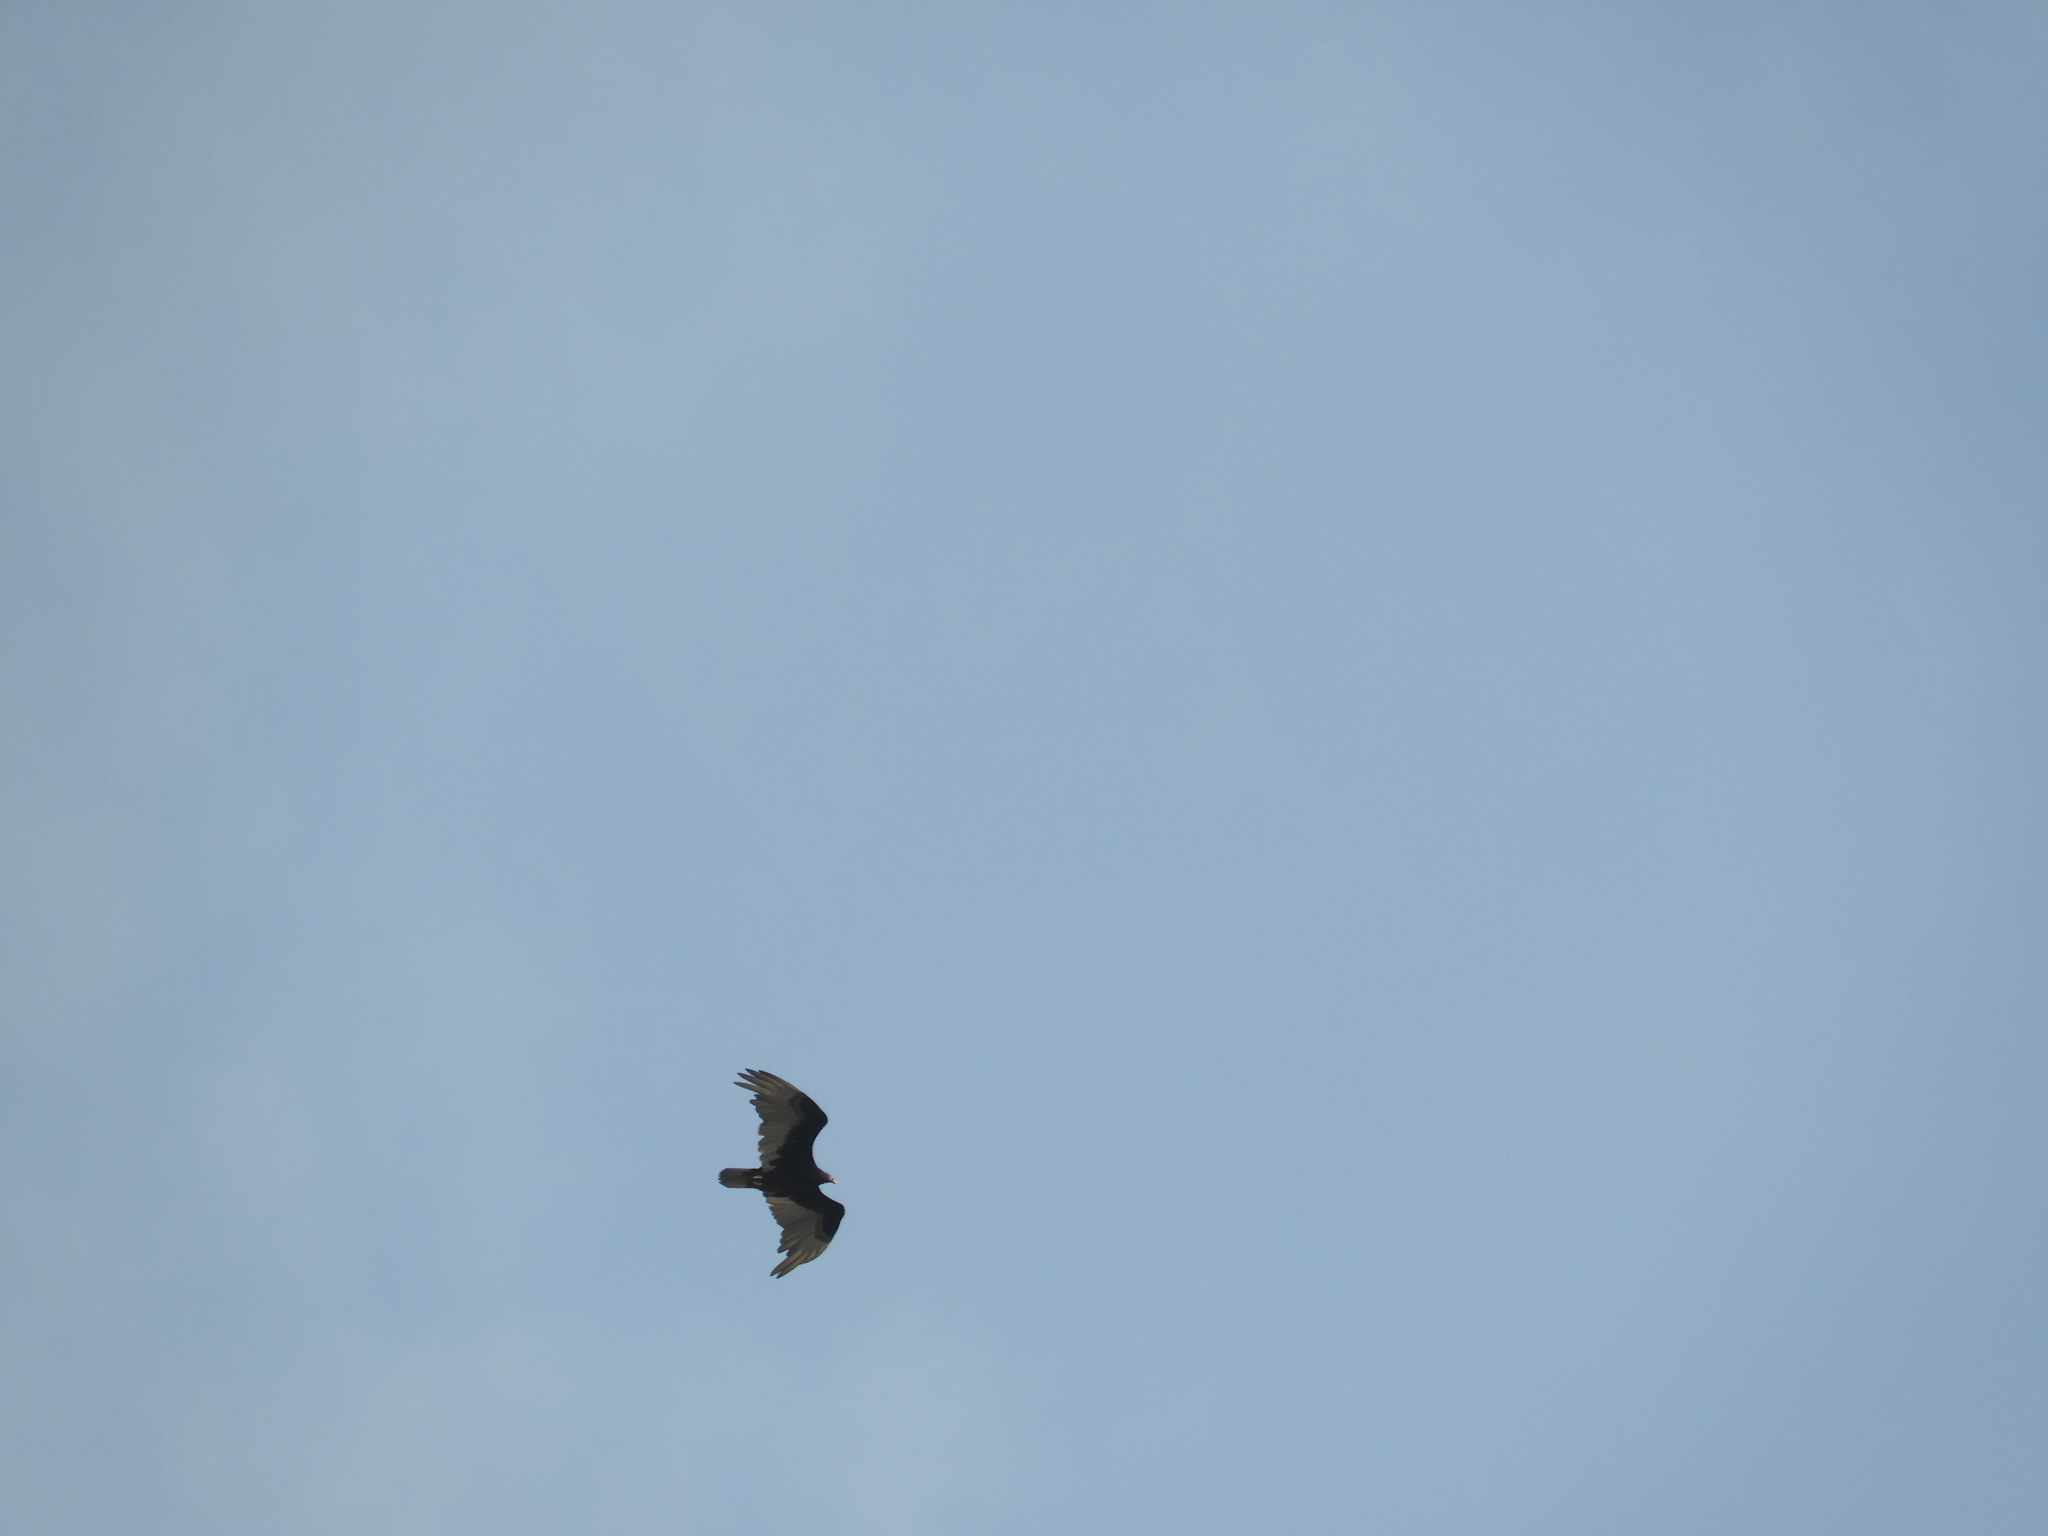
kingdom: Animalia
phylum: Chordata
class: Aves
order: Accipitriformes
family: Cathartidae
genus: Cathartes
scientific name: Cathartes aura
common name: Turkey vulture
